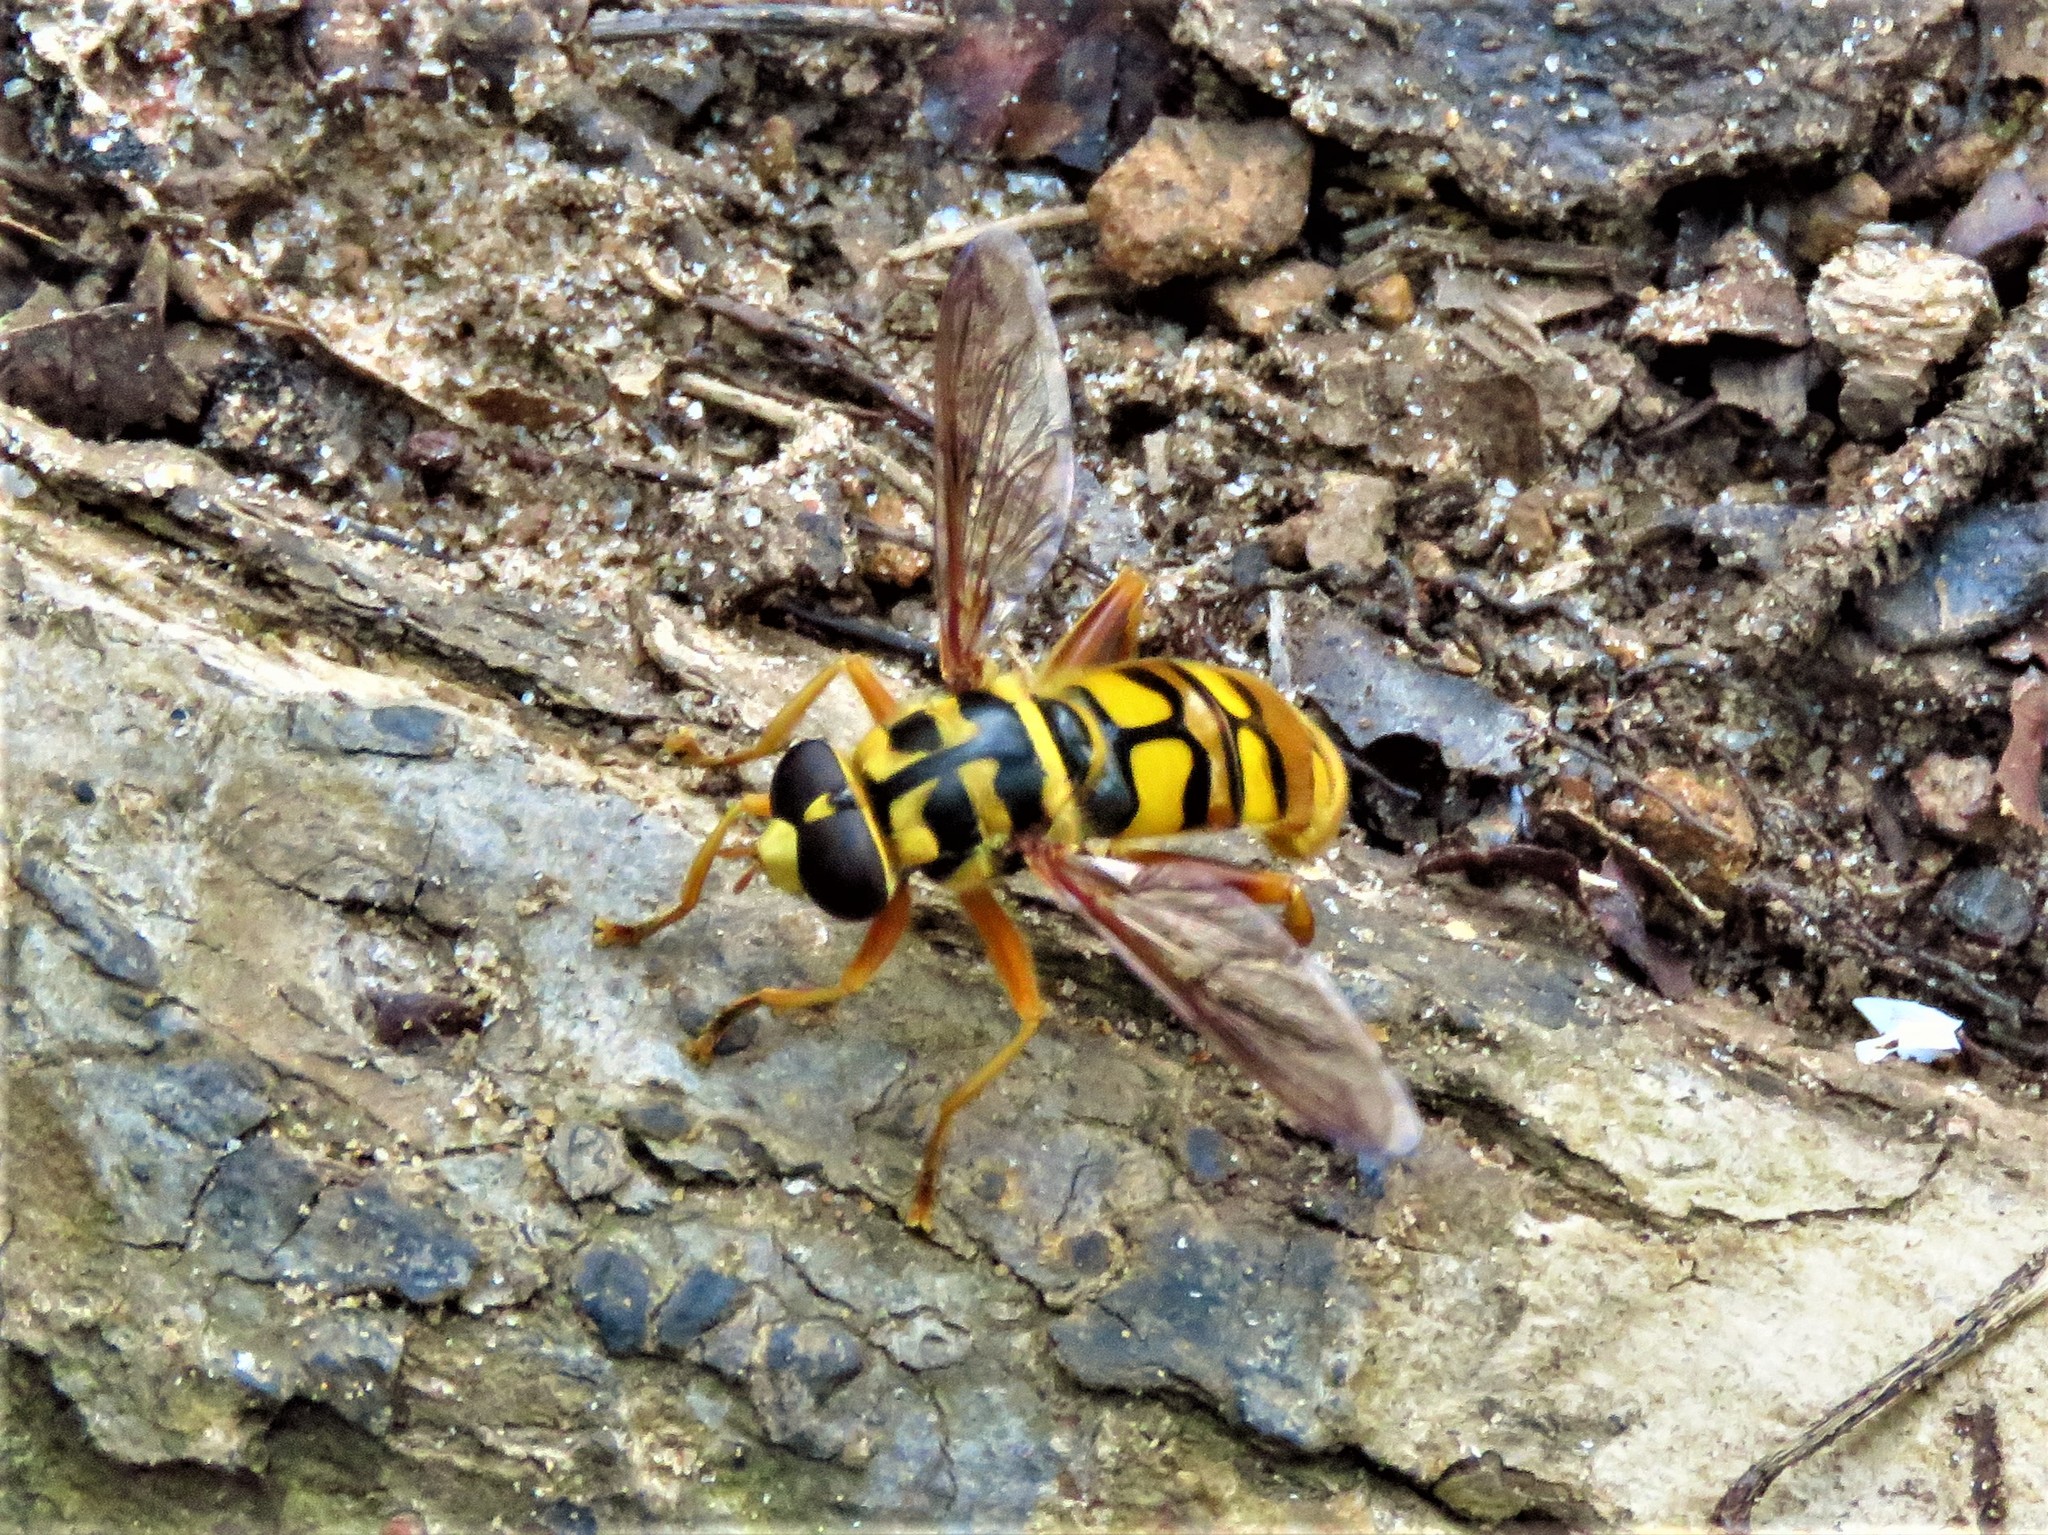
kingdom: Animalia
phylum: Arthropoda
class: Insecta
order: Diptera
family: Syrphidae
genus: Milesia
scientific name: Milesia virginiensis
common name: Virginia giant
